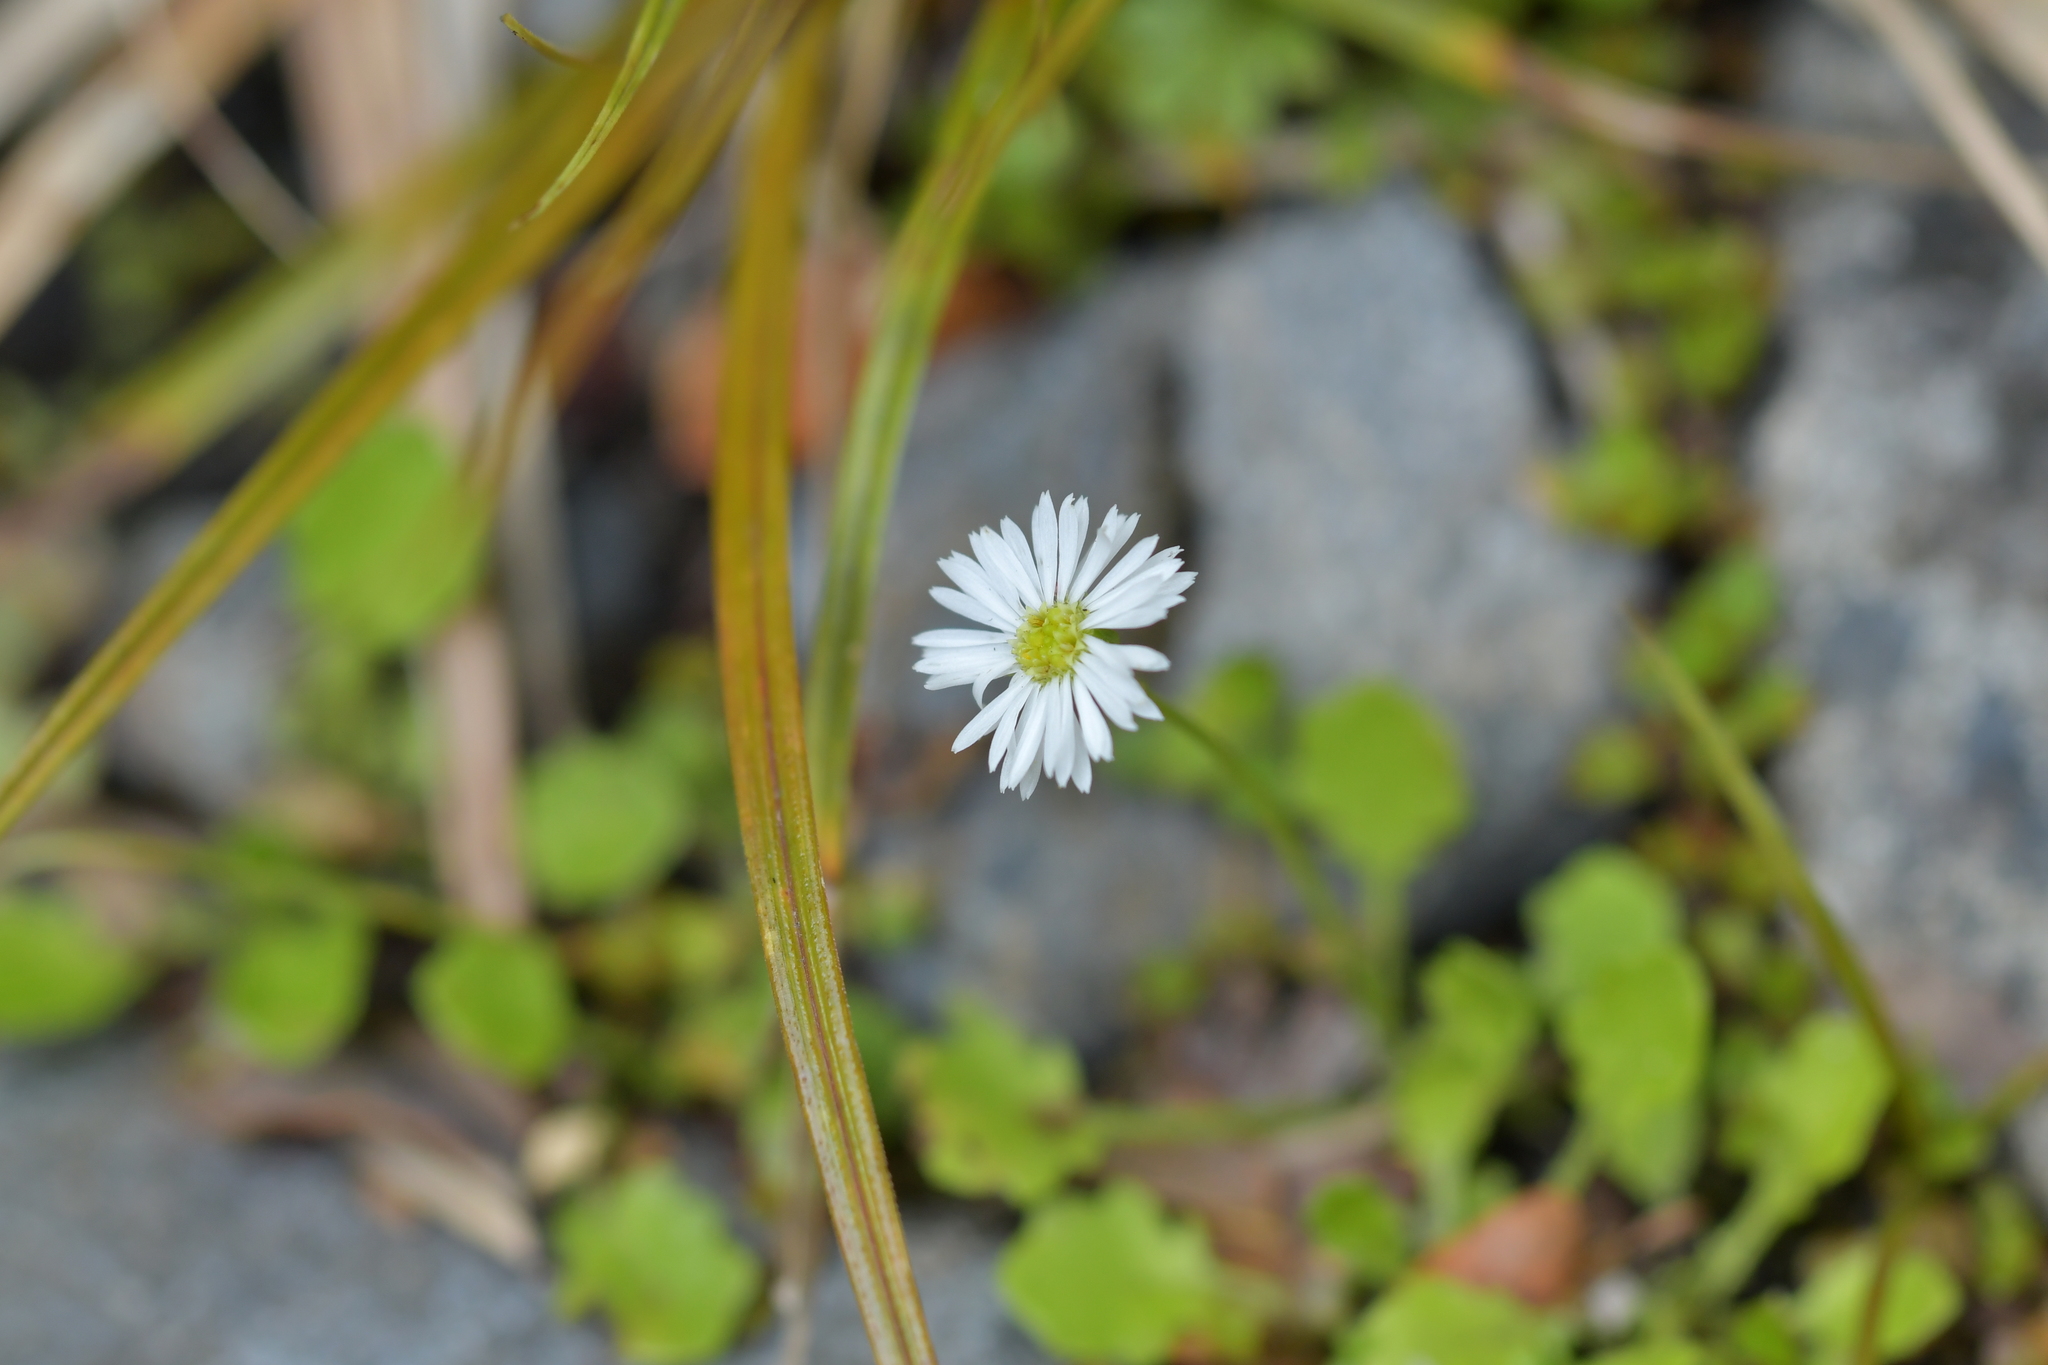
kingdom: Plantae
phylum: Tracheophyta
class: Magnoliopsida
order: Asterales
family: Asteraceae
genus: Lagenophora
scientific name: Lagenophora pumila
